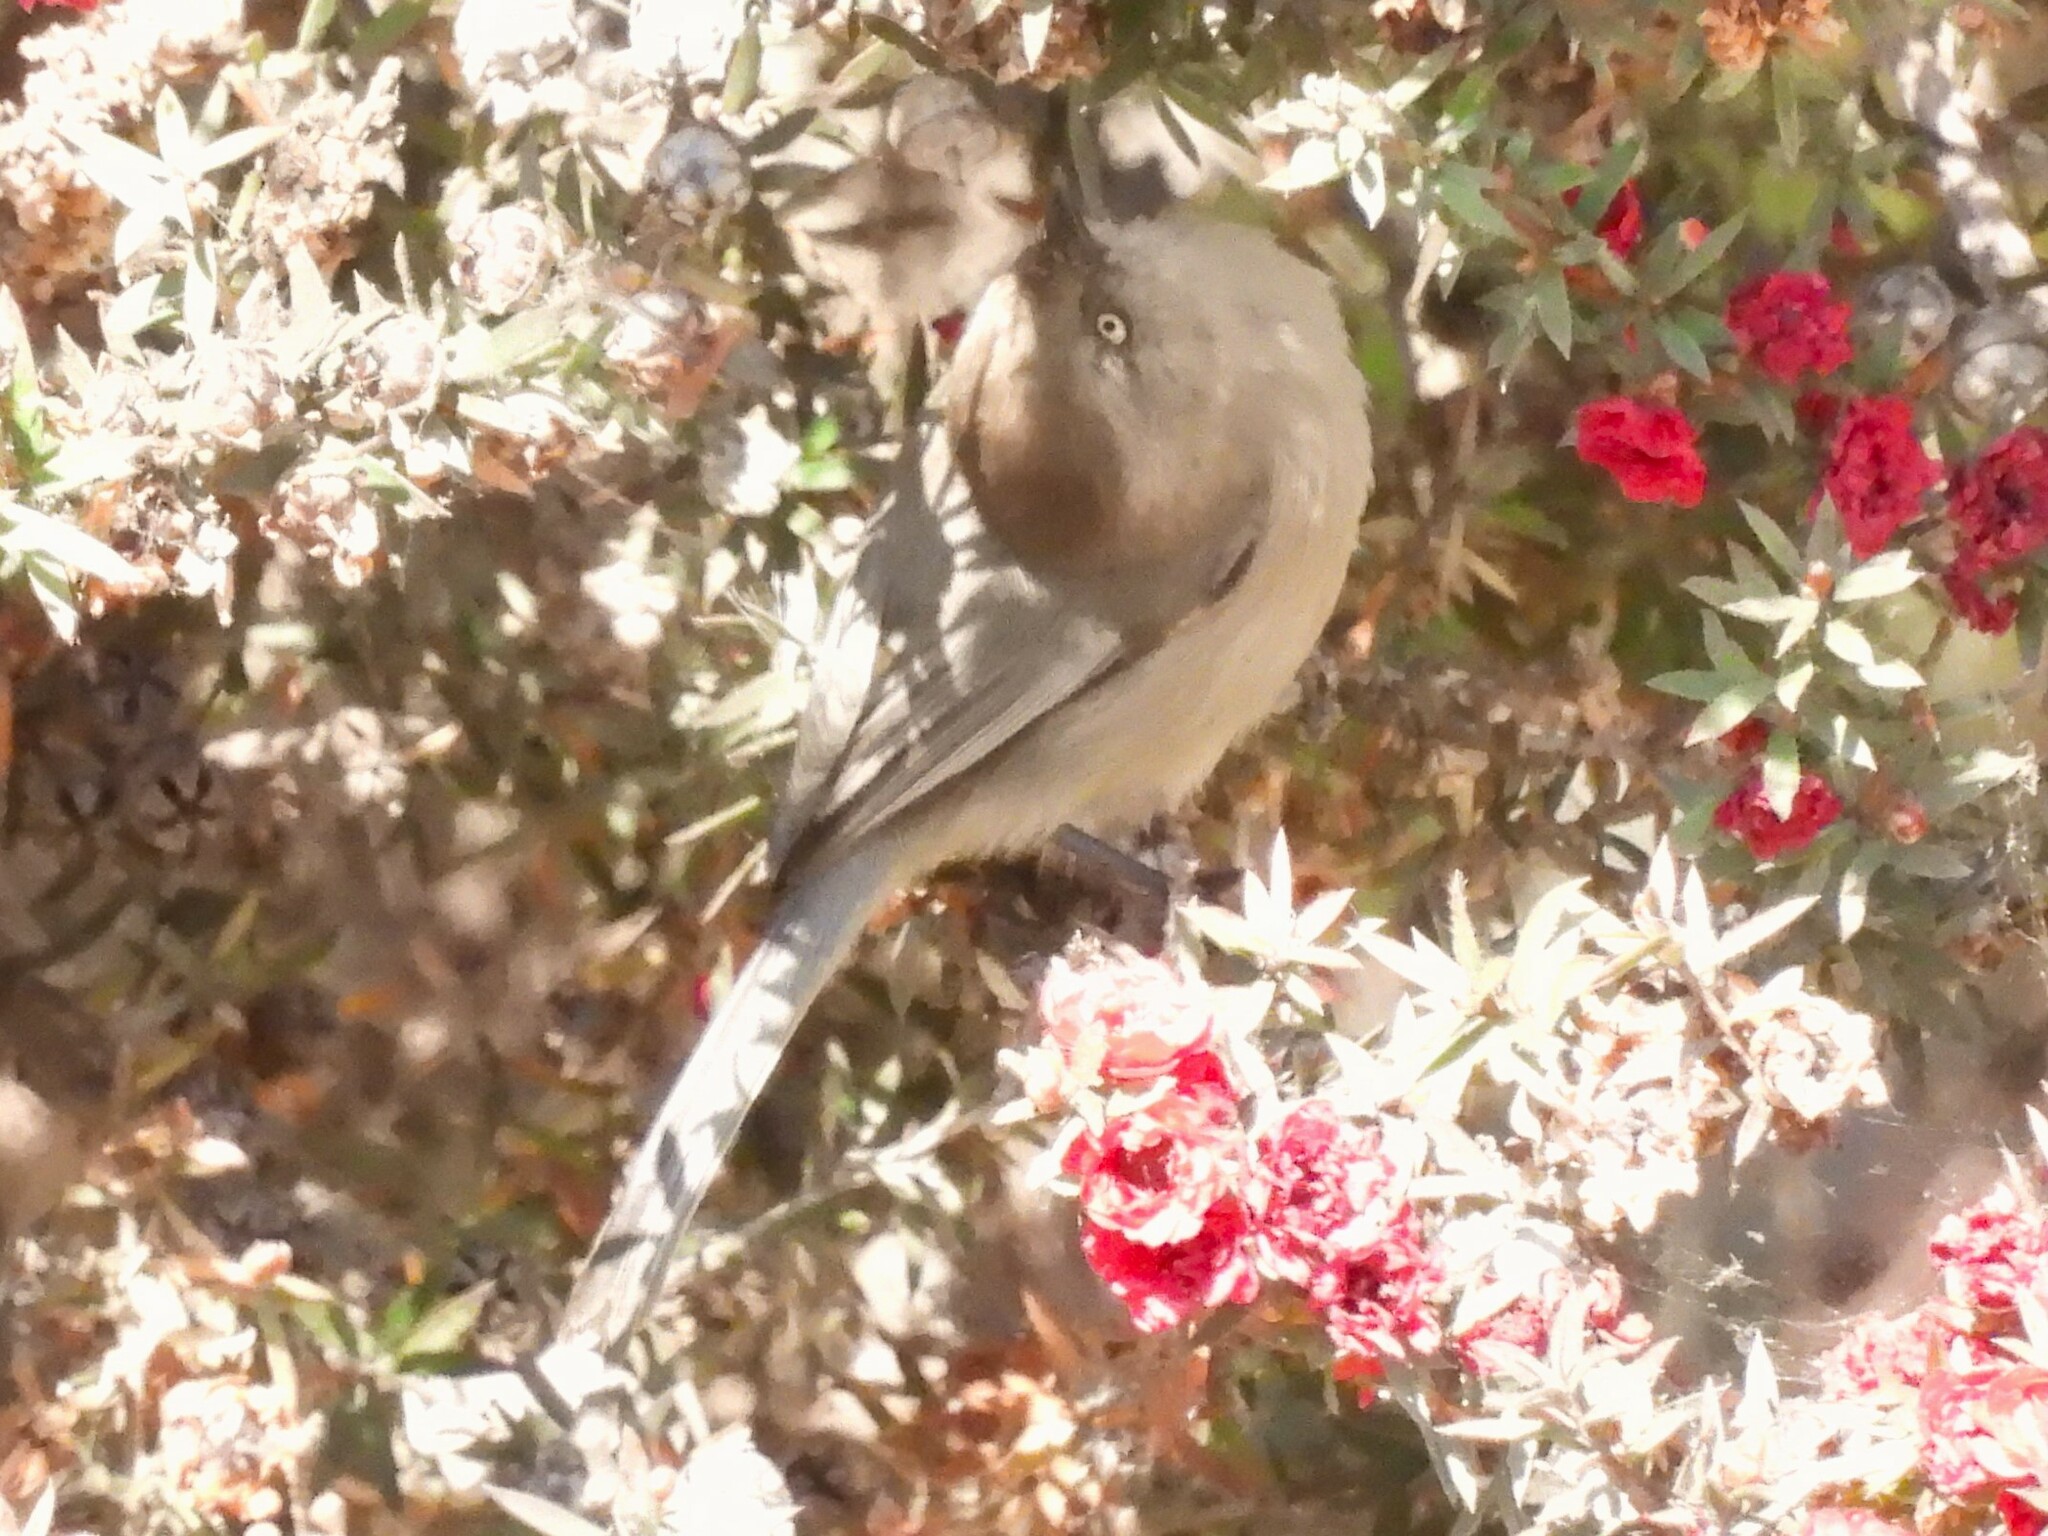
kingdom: Animalia
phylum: Chordata
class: Aves
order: Passeriformes
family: Aegithalidae
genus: Psaltriparus
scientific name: Psaltriparus minimus
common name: American bushtit
